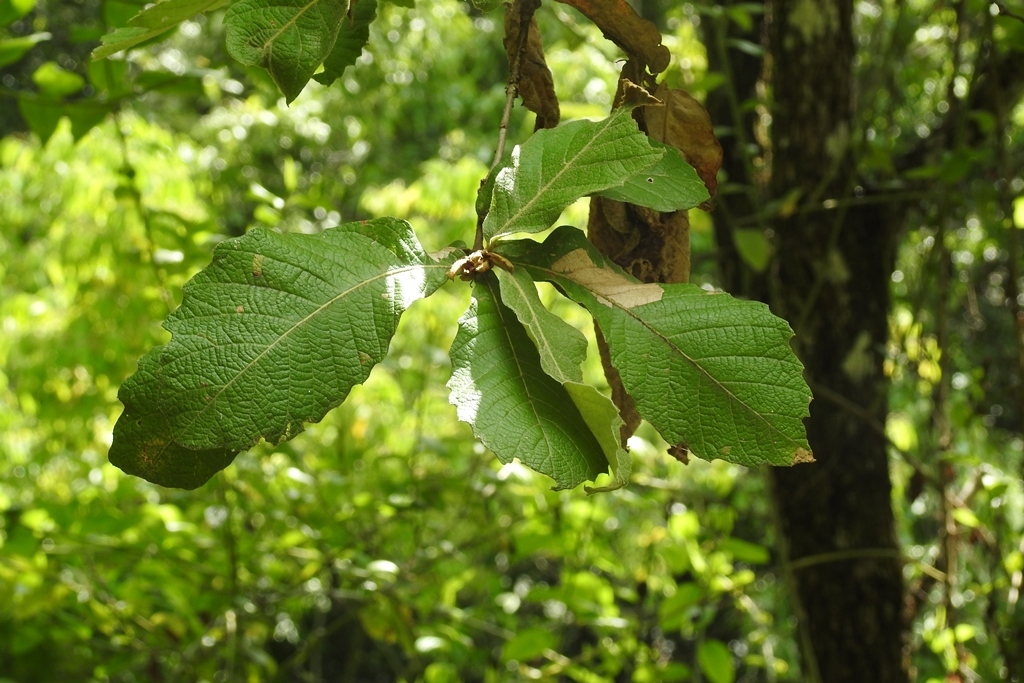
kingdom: Plantae
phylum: Tracheophyta
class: Magnoliopsida
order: Fagales
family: Fagaceae
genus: Quercus
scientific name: Quercus peduncularis
